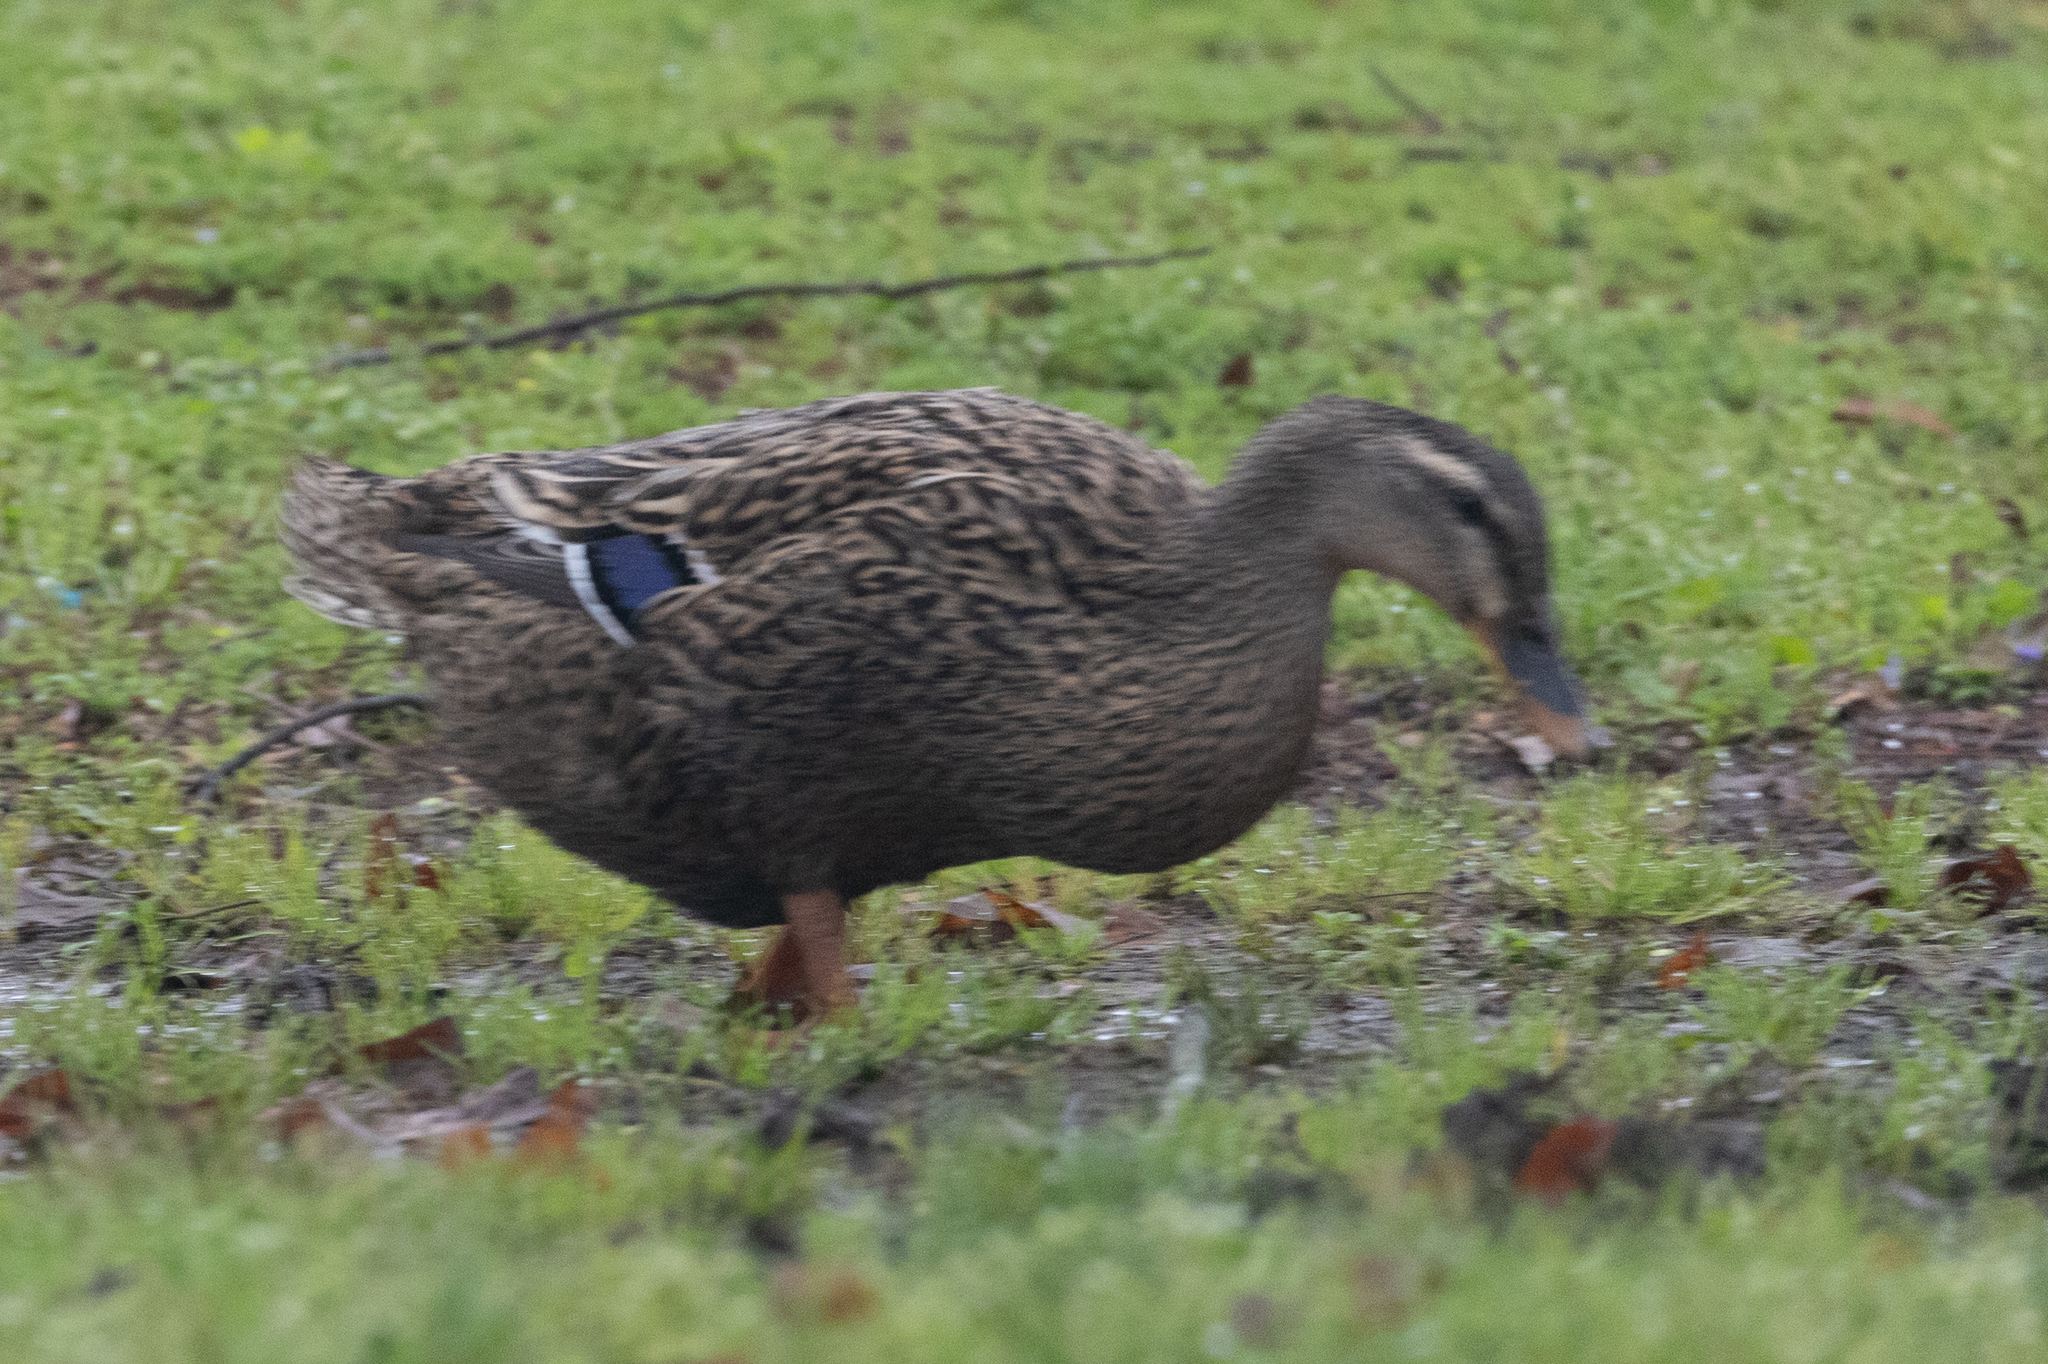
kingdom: Animalia
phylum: Chordata
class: Aves
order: Anseriformes
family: Anatidae
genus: Anas
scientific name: Anas platyrhynchos
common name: Mallard
